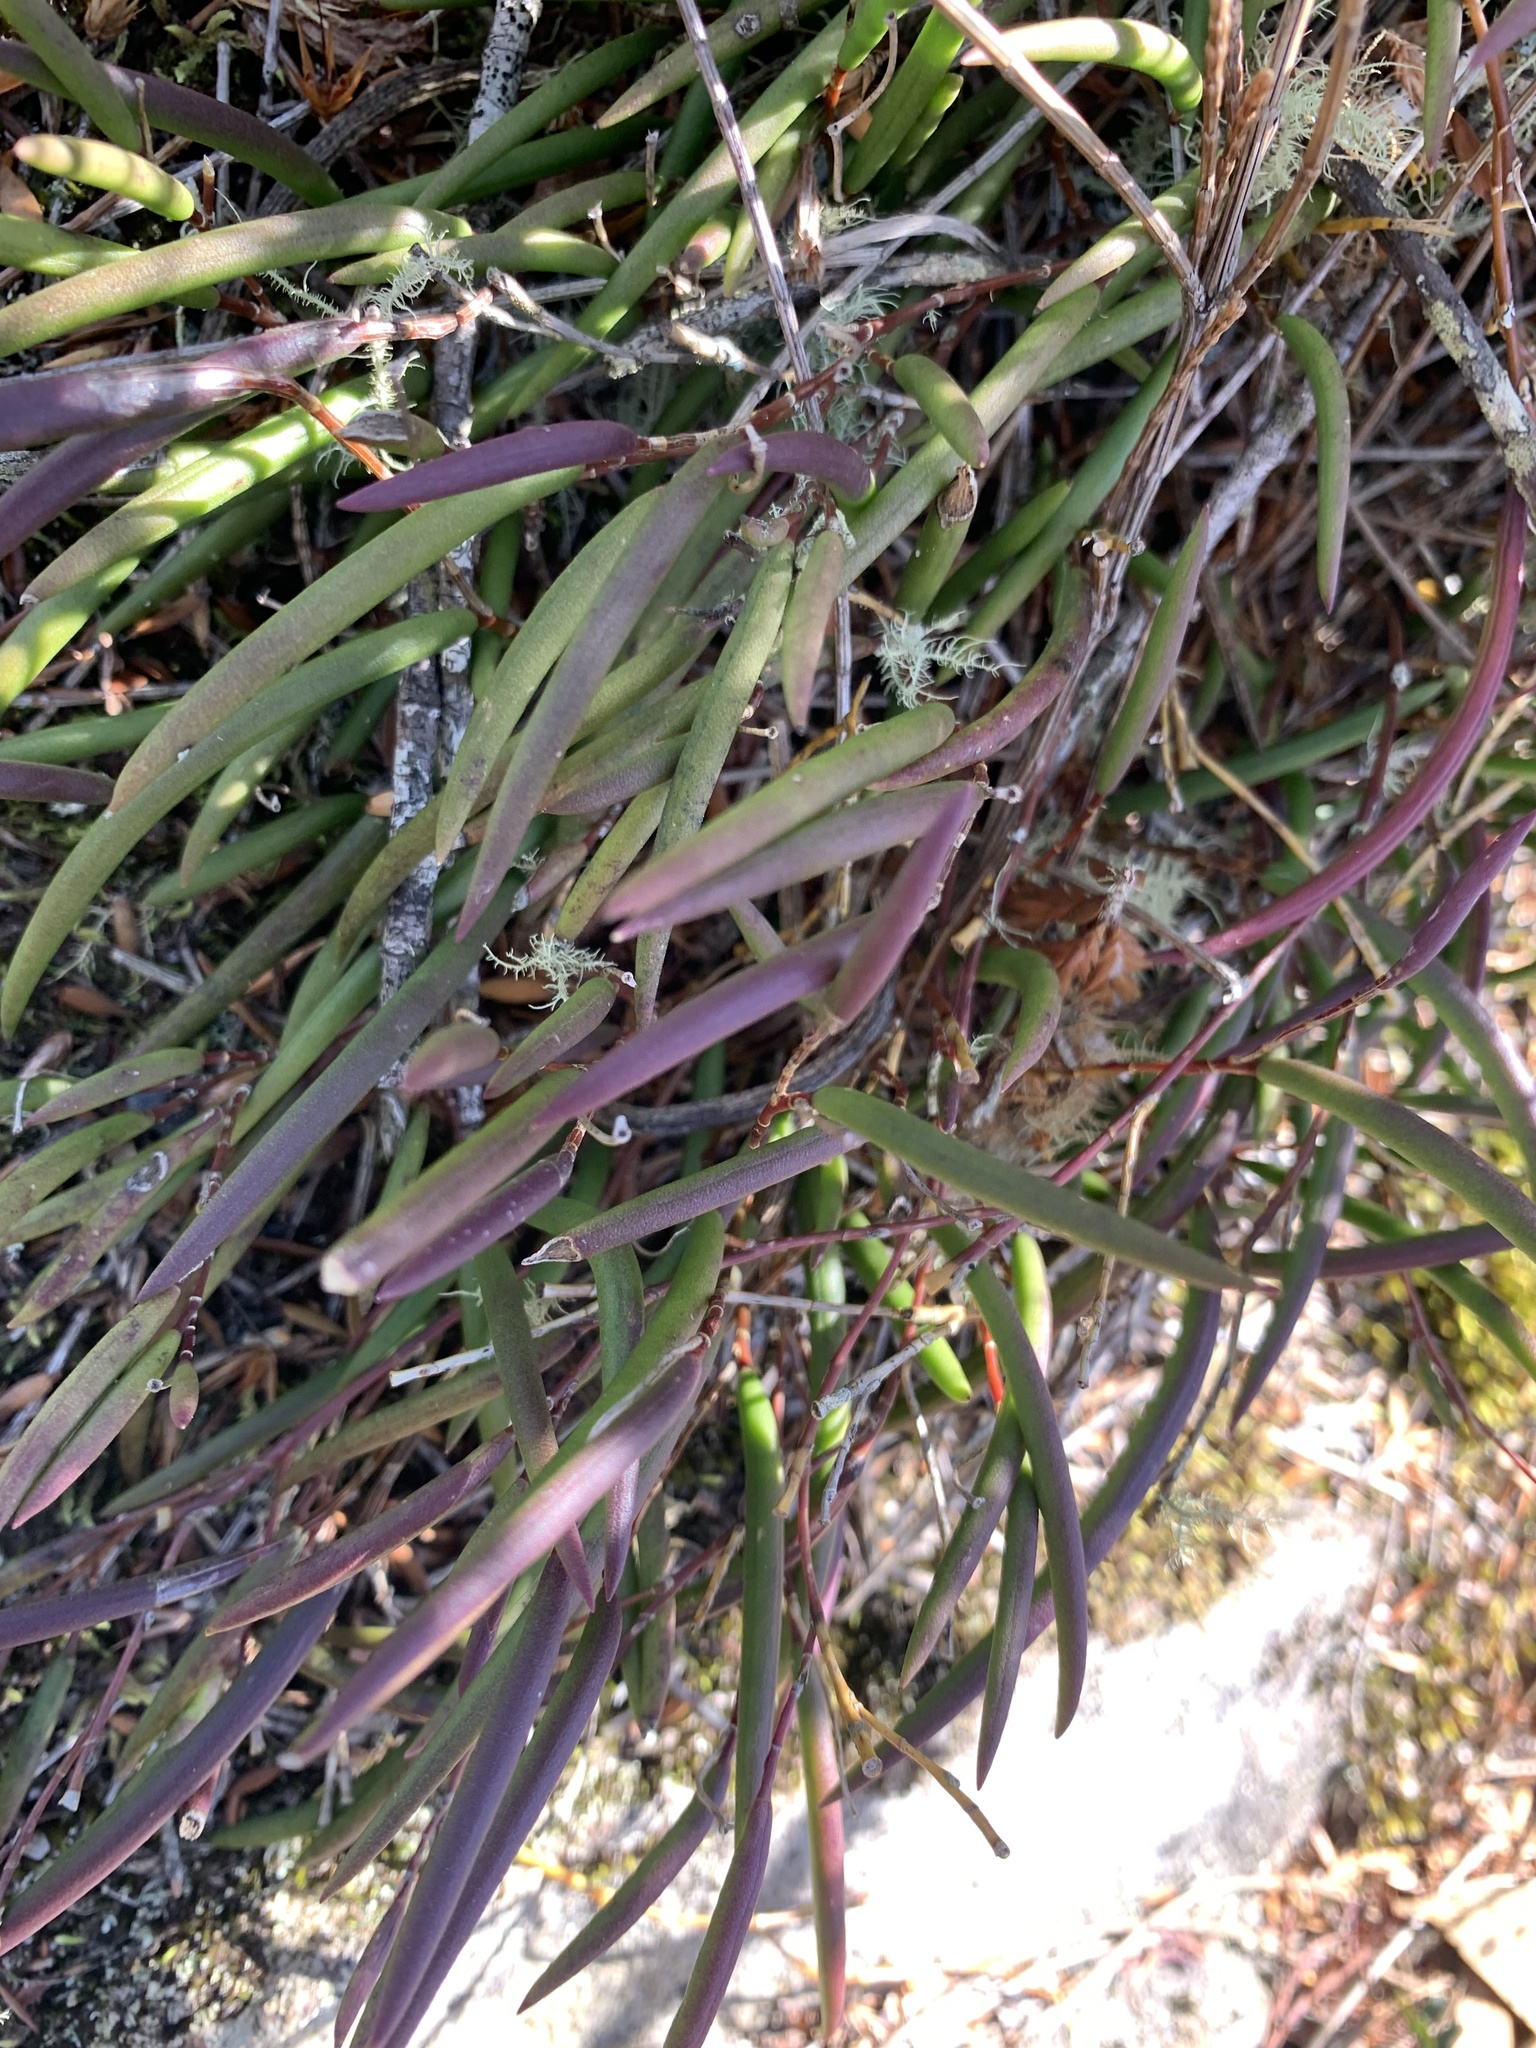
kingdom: Plantae
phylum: Tracheophyta
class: Liliopsida
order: Asparagales
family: Orchidaceae
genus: Dendrobium
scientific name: Dendrobium striolatum
